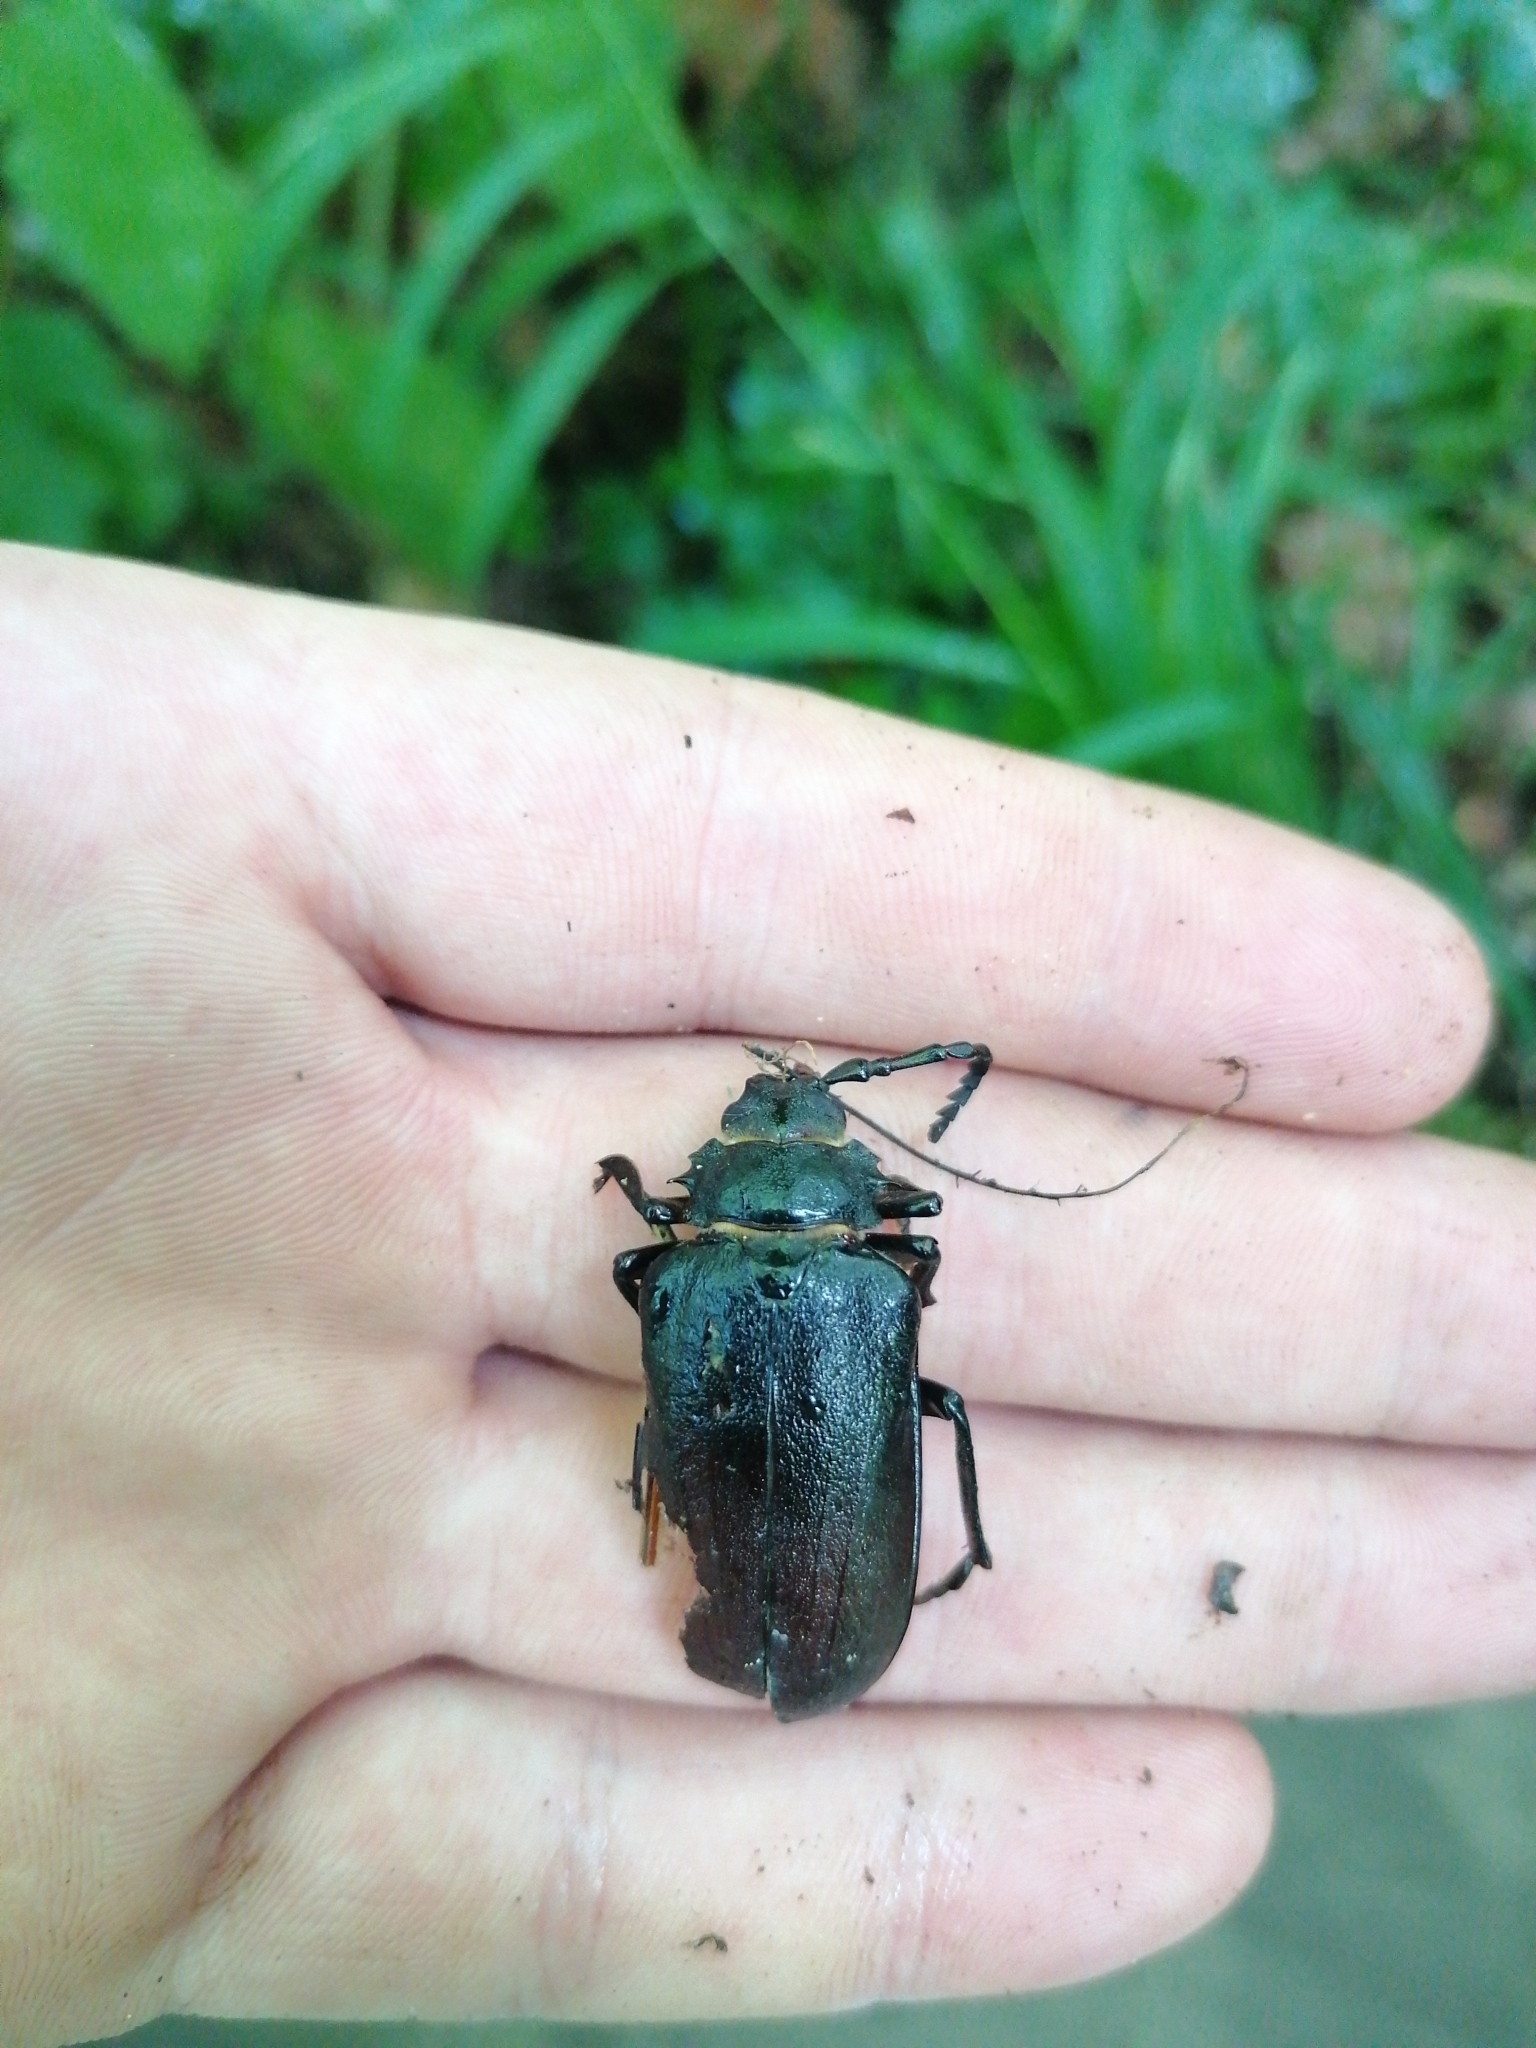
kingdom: Animalia
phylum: Arthropoda
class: Insecta
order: Coleoptera
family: Cerambycidae
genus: Prionus
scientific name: Prionus coriarius
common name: Tanner beetle
